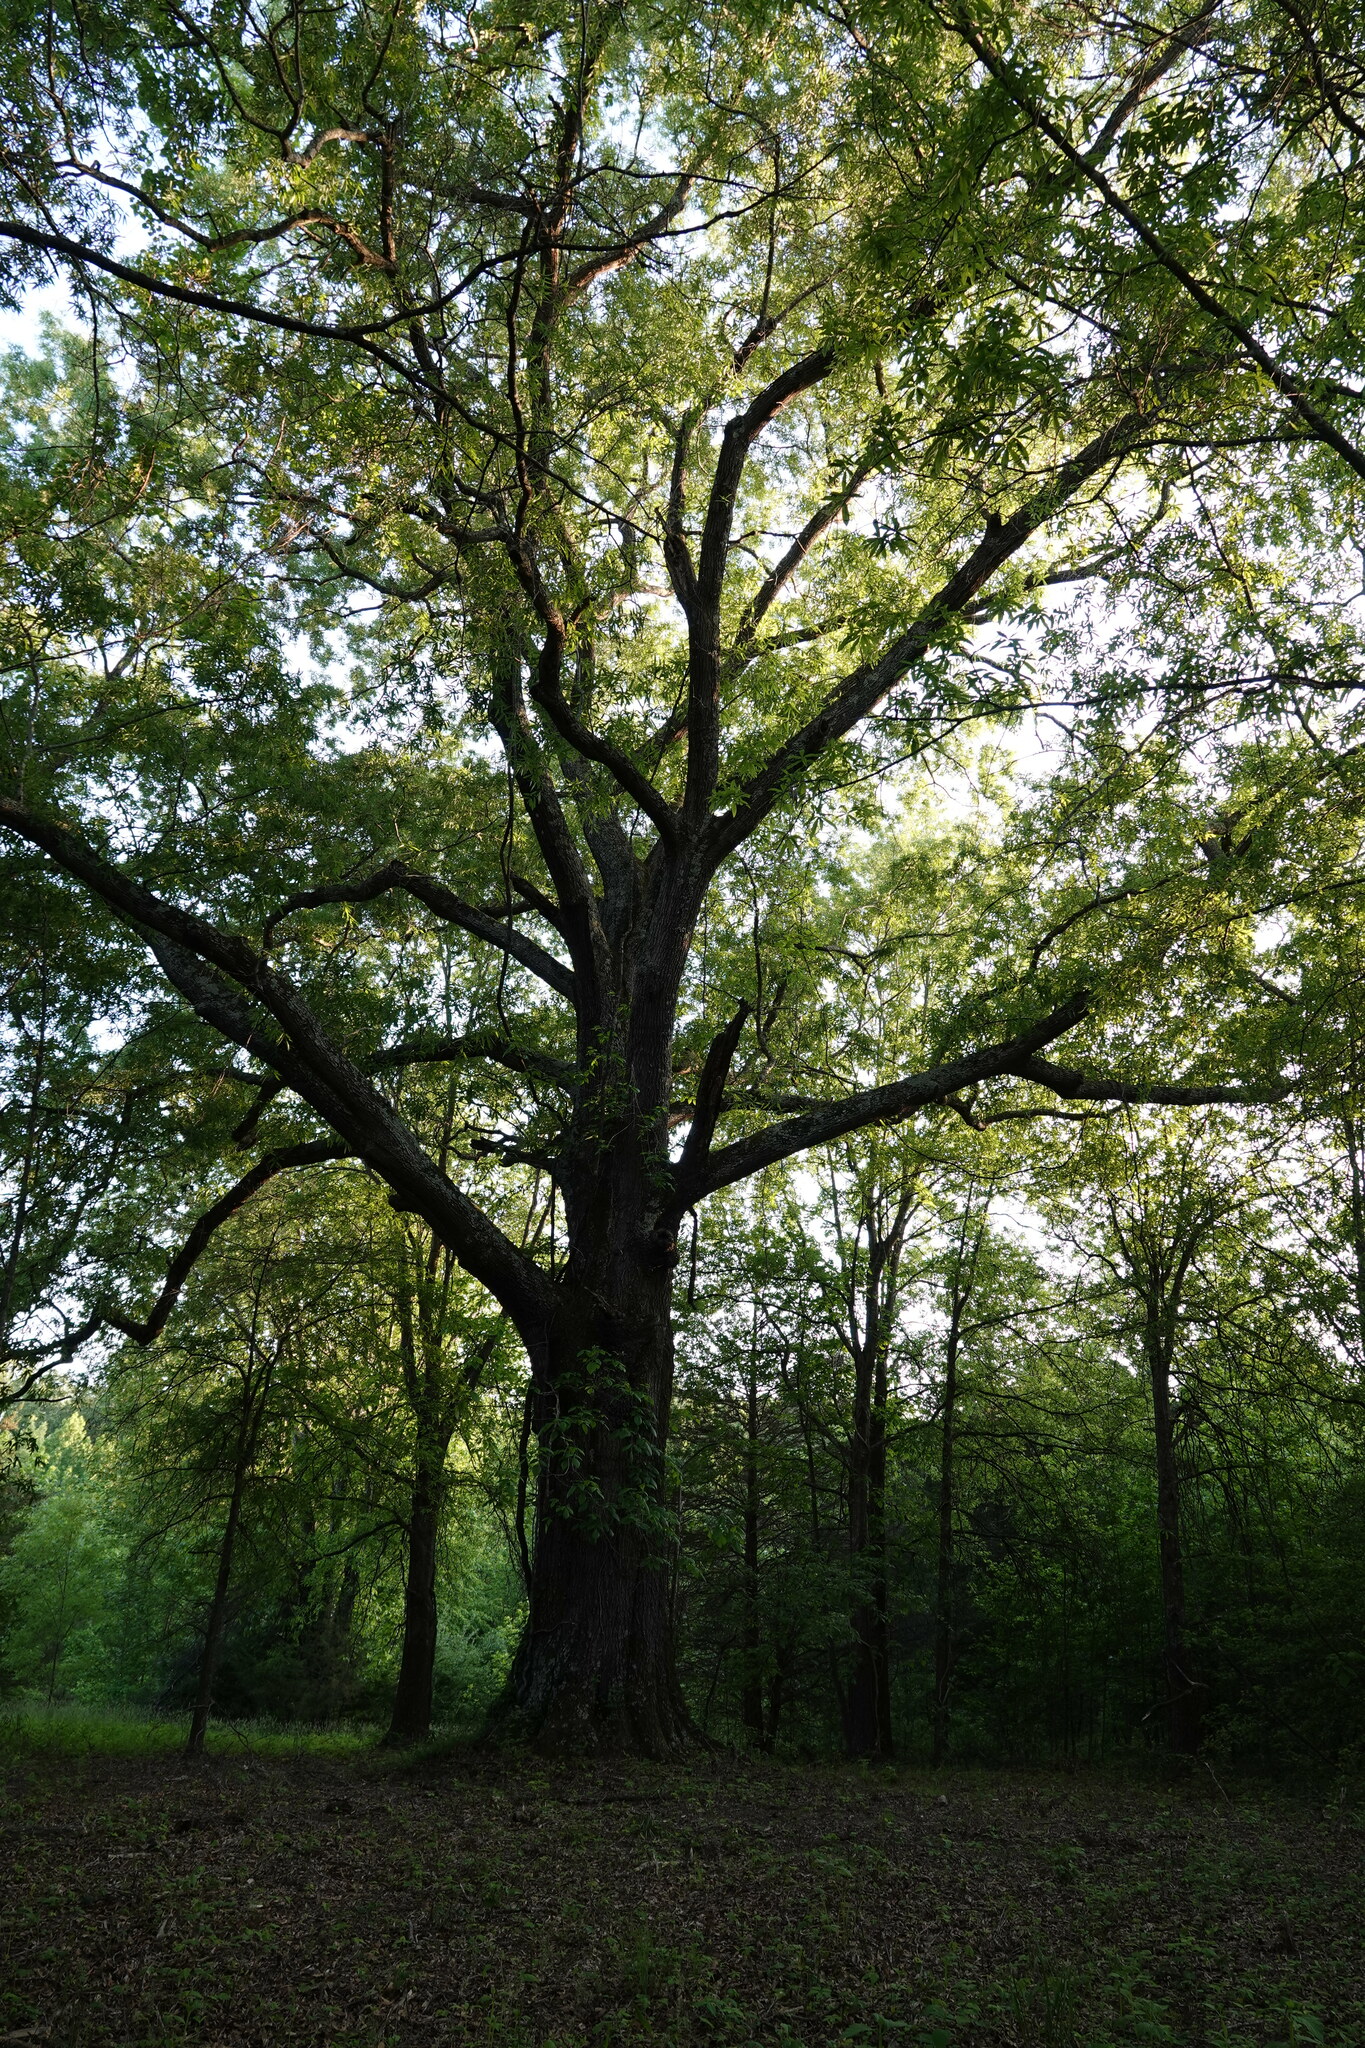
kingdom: Plantae
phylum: Tracheophyta
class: Magnoliopsida
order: Fagales
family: Fagaceae
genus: Quercus
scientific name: Quercus phellos
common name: Willow oak
